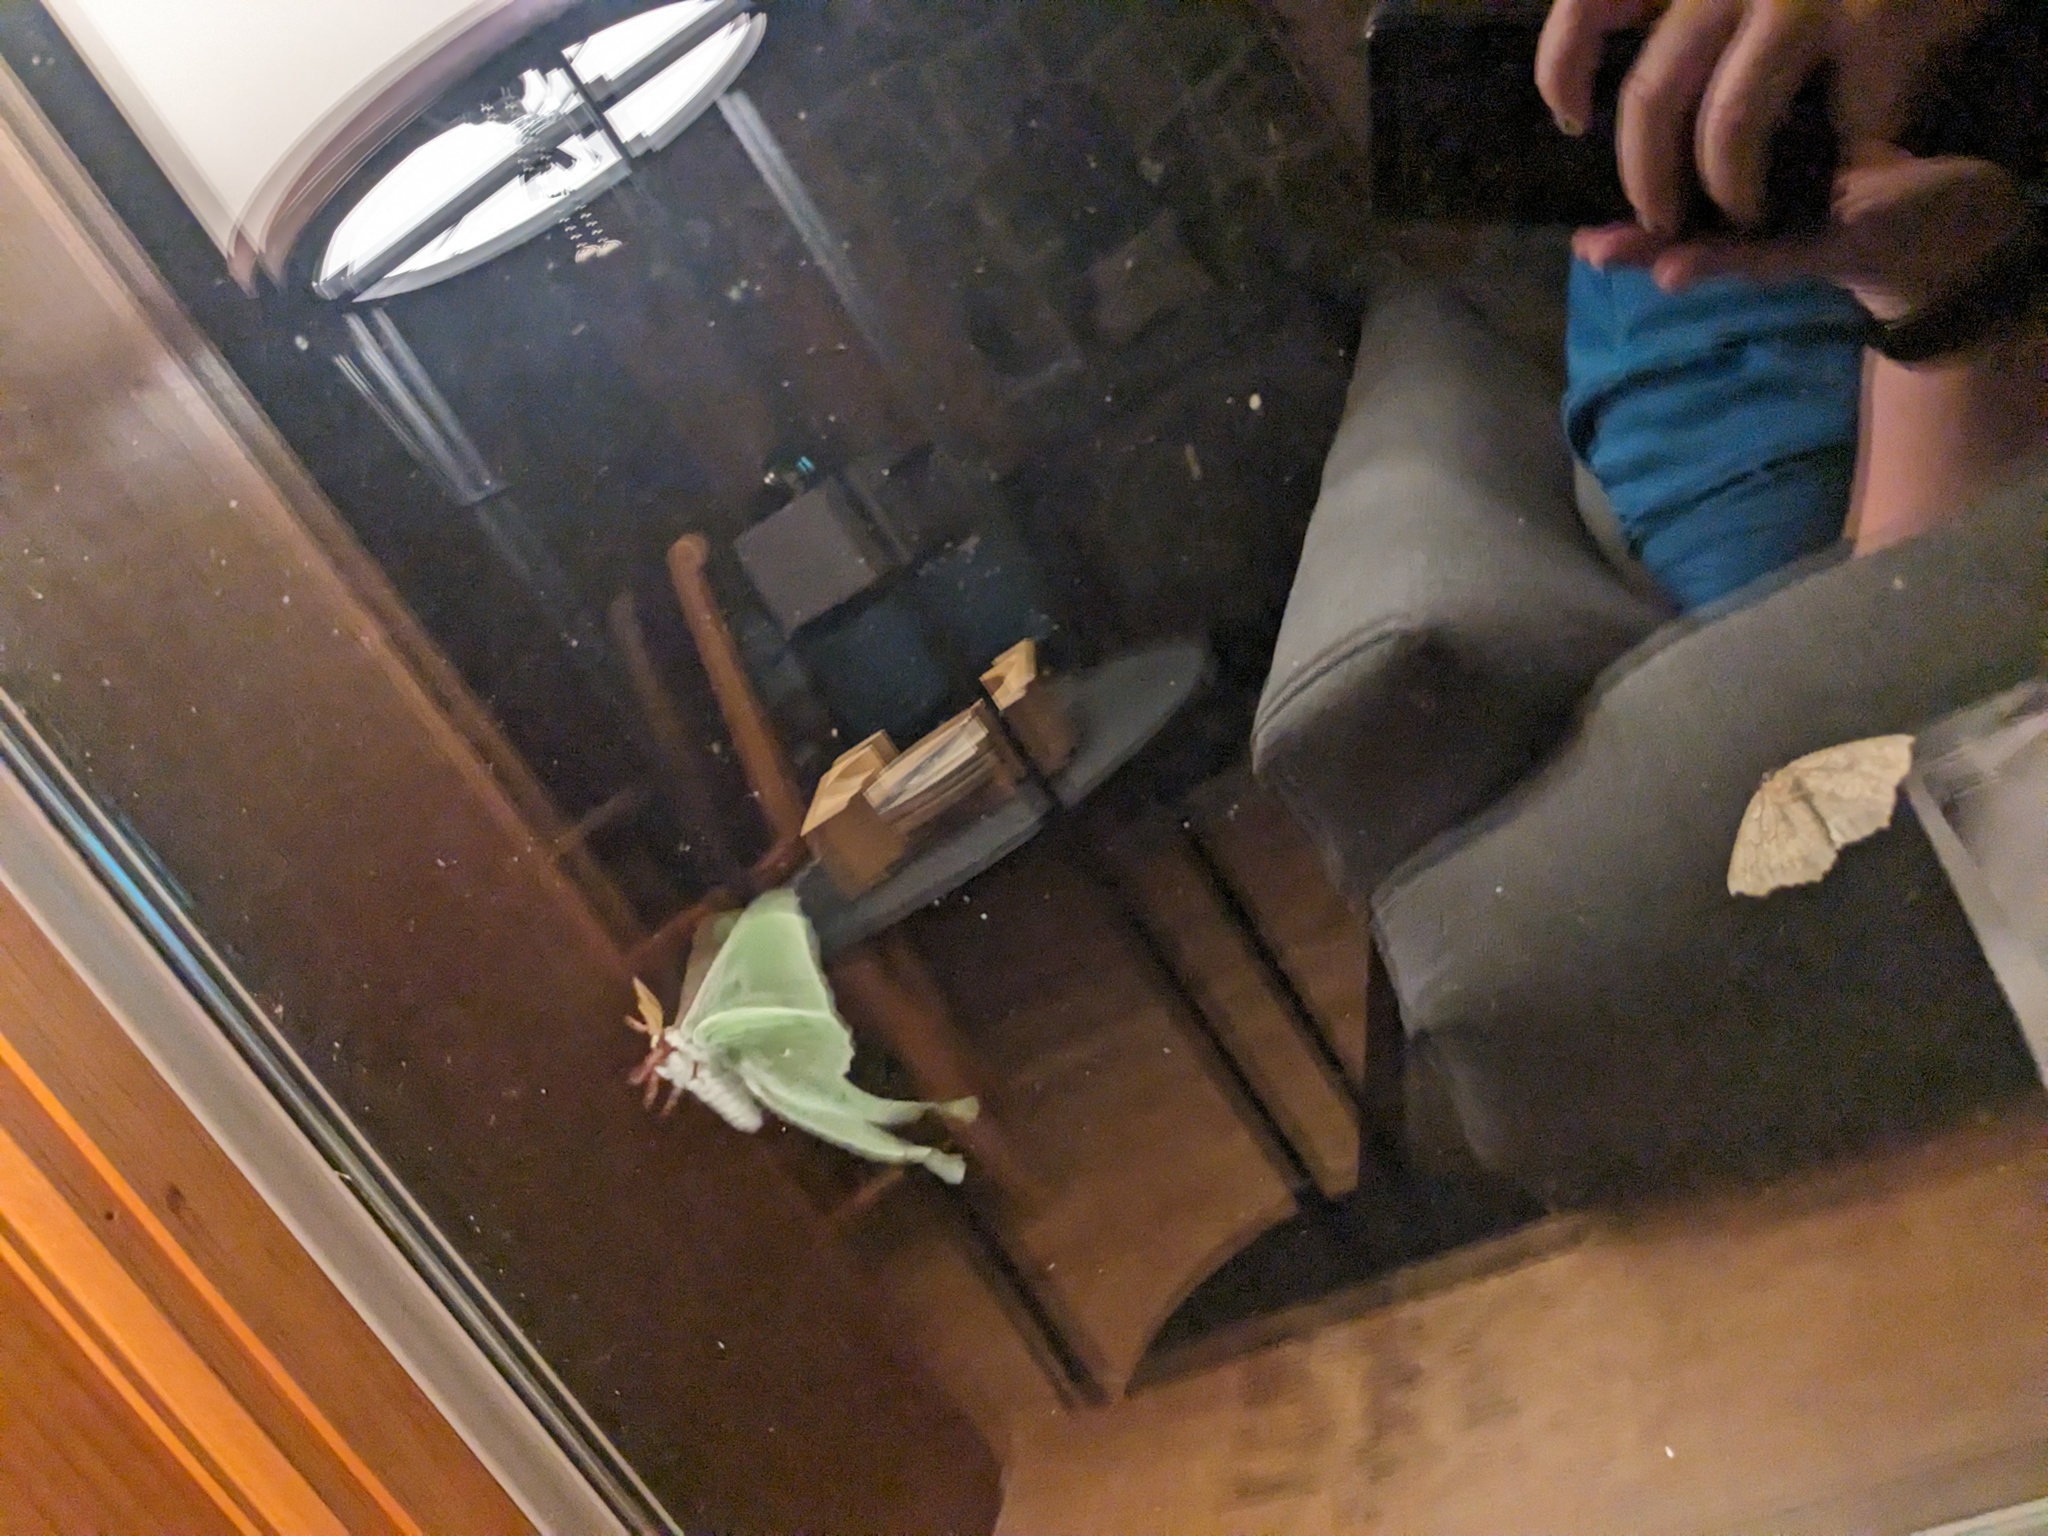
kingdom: Animalia
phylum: Arthropoda
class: Insecta
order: Lepidoptera
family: Saturniidae
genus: Actias
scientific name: Actias luna
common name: Luna moth
